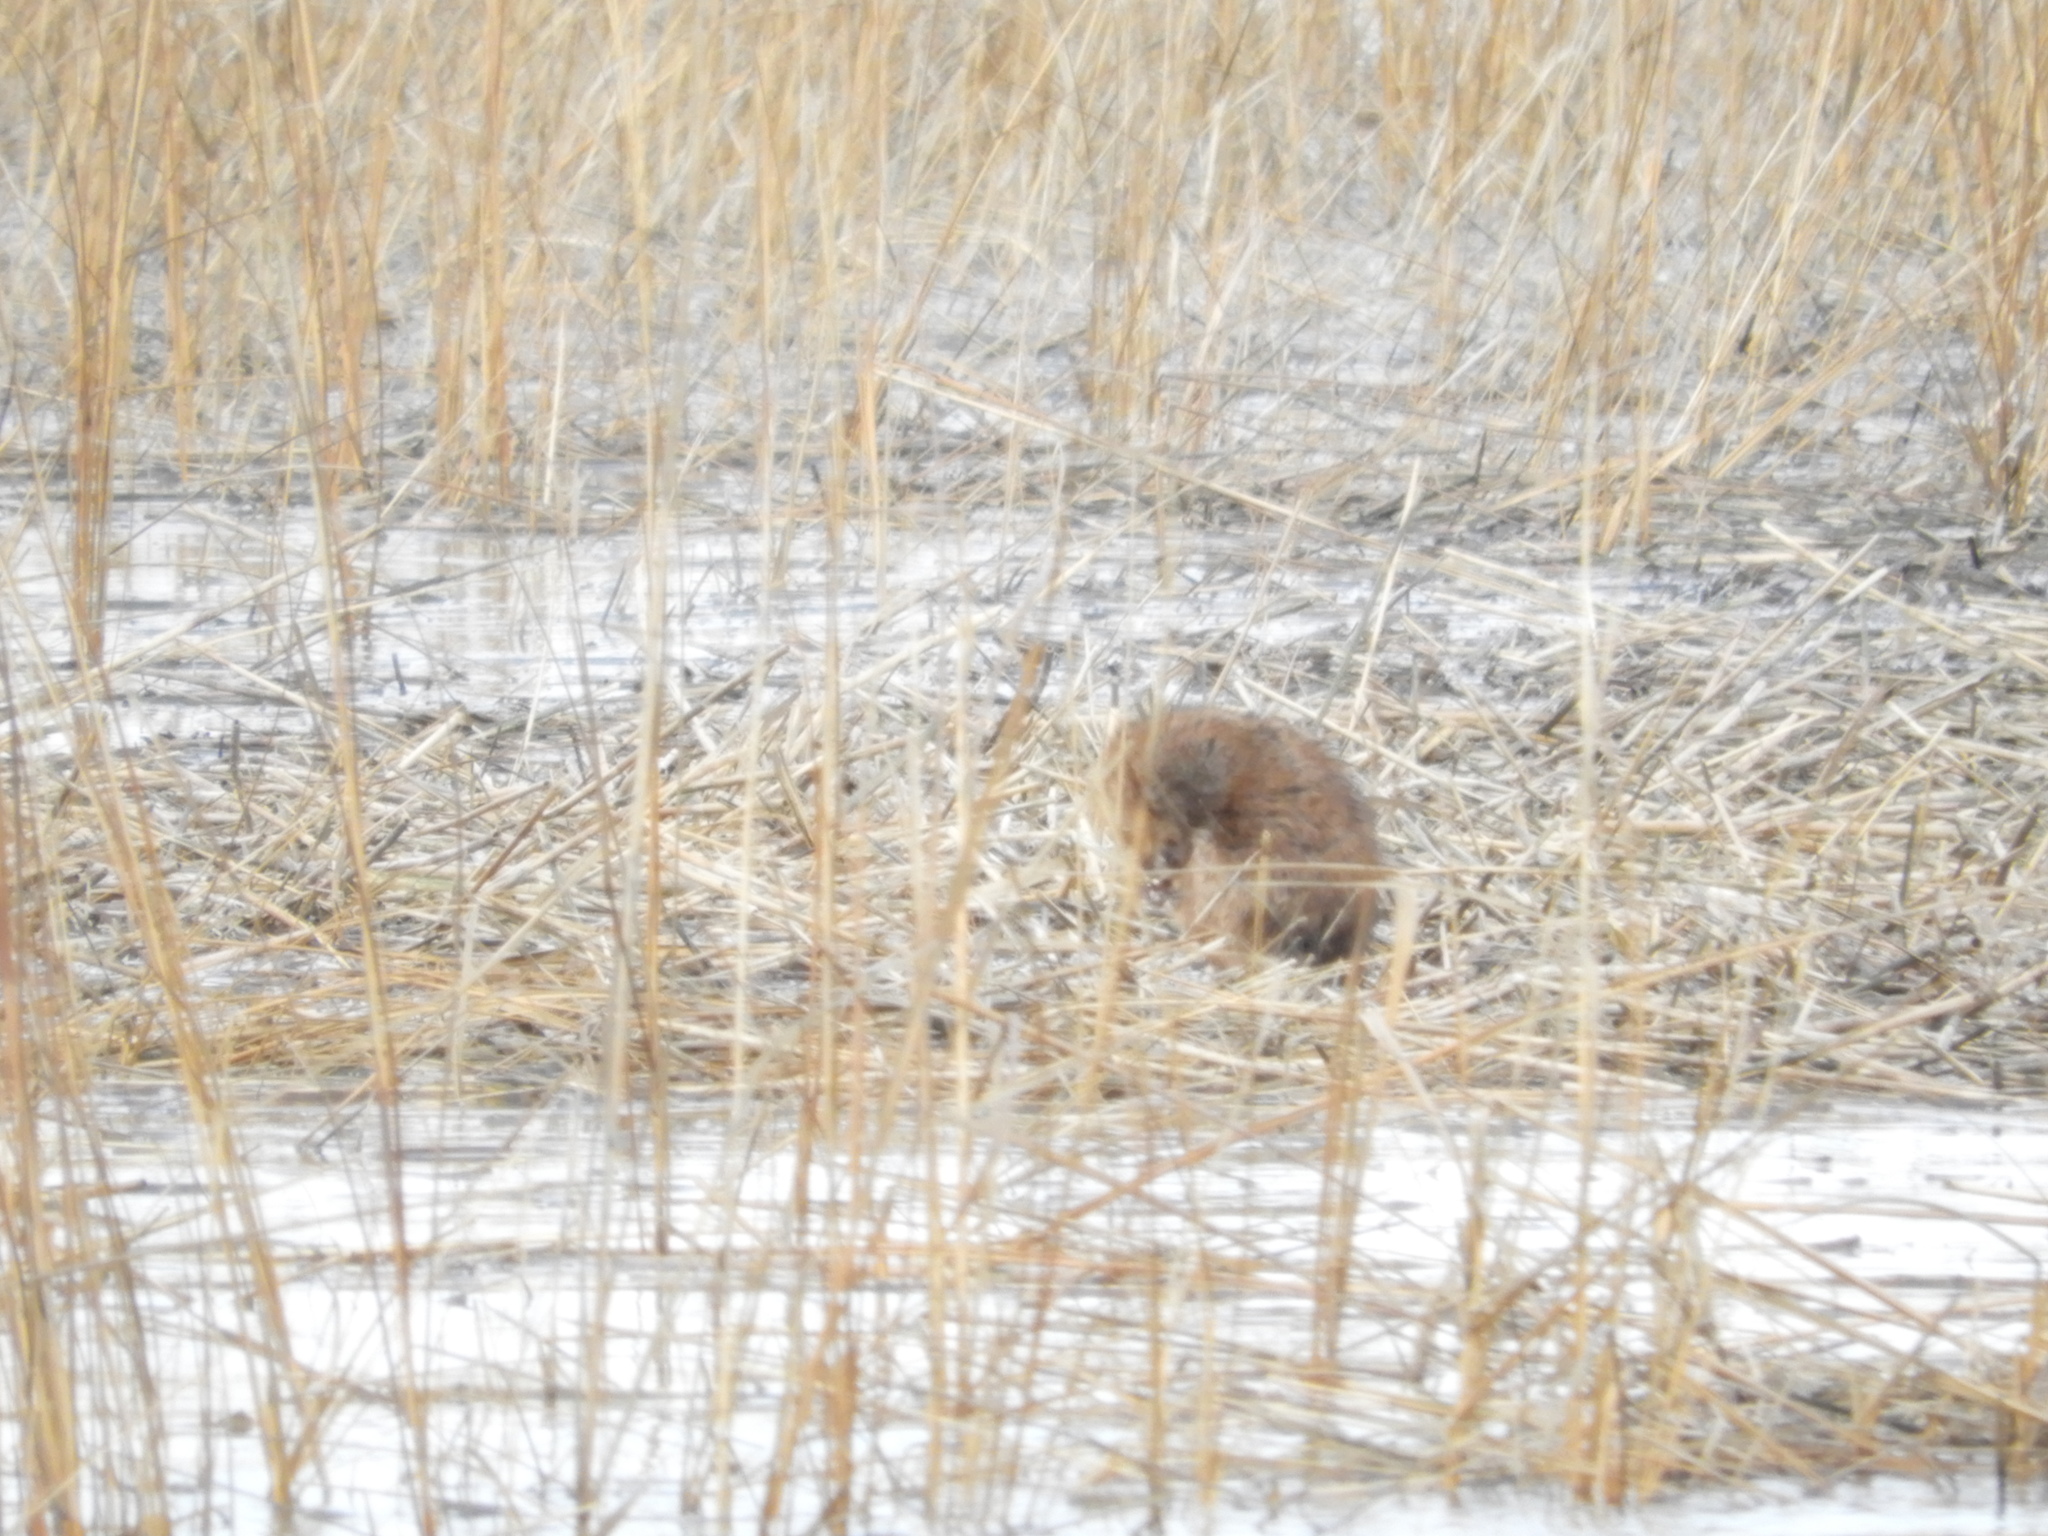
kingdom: Animalia
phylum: Chordata
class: Mammalia
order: Rodentia
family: Cricetidae
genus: Ondatra
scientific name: Ondatra zibethicus
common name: Muskrat
